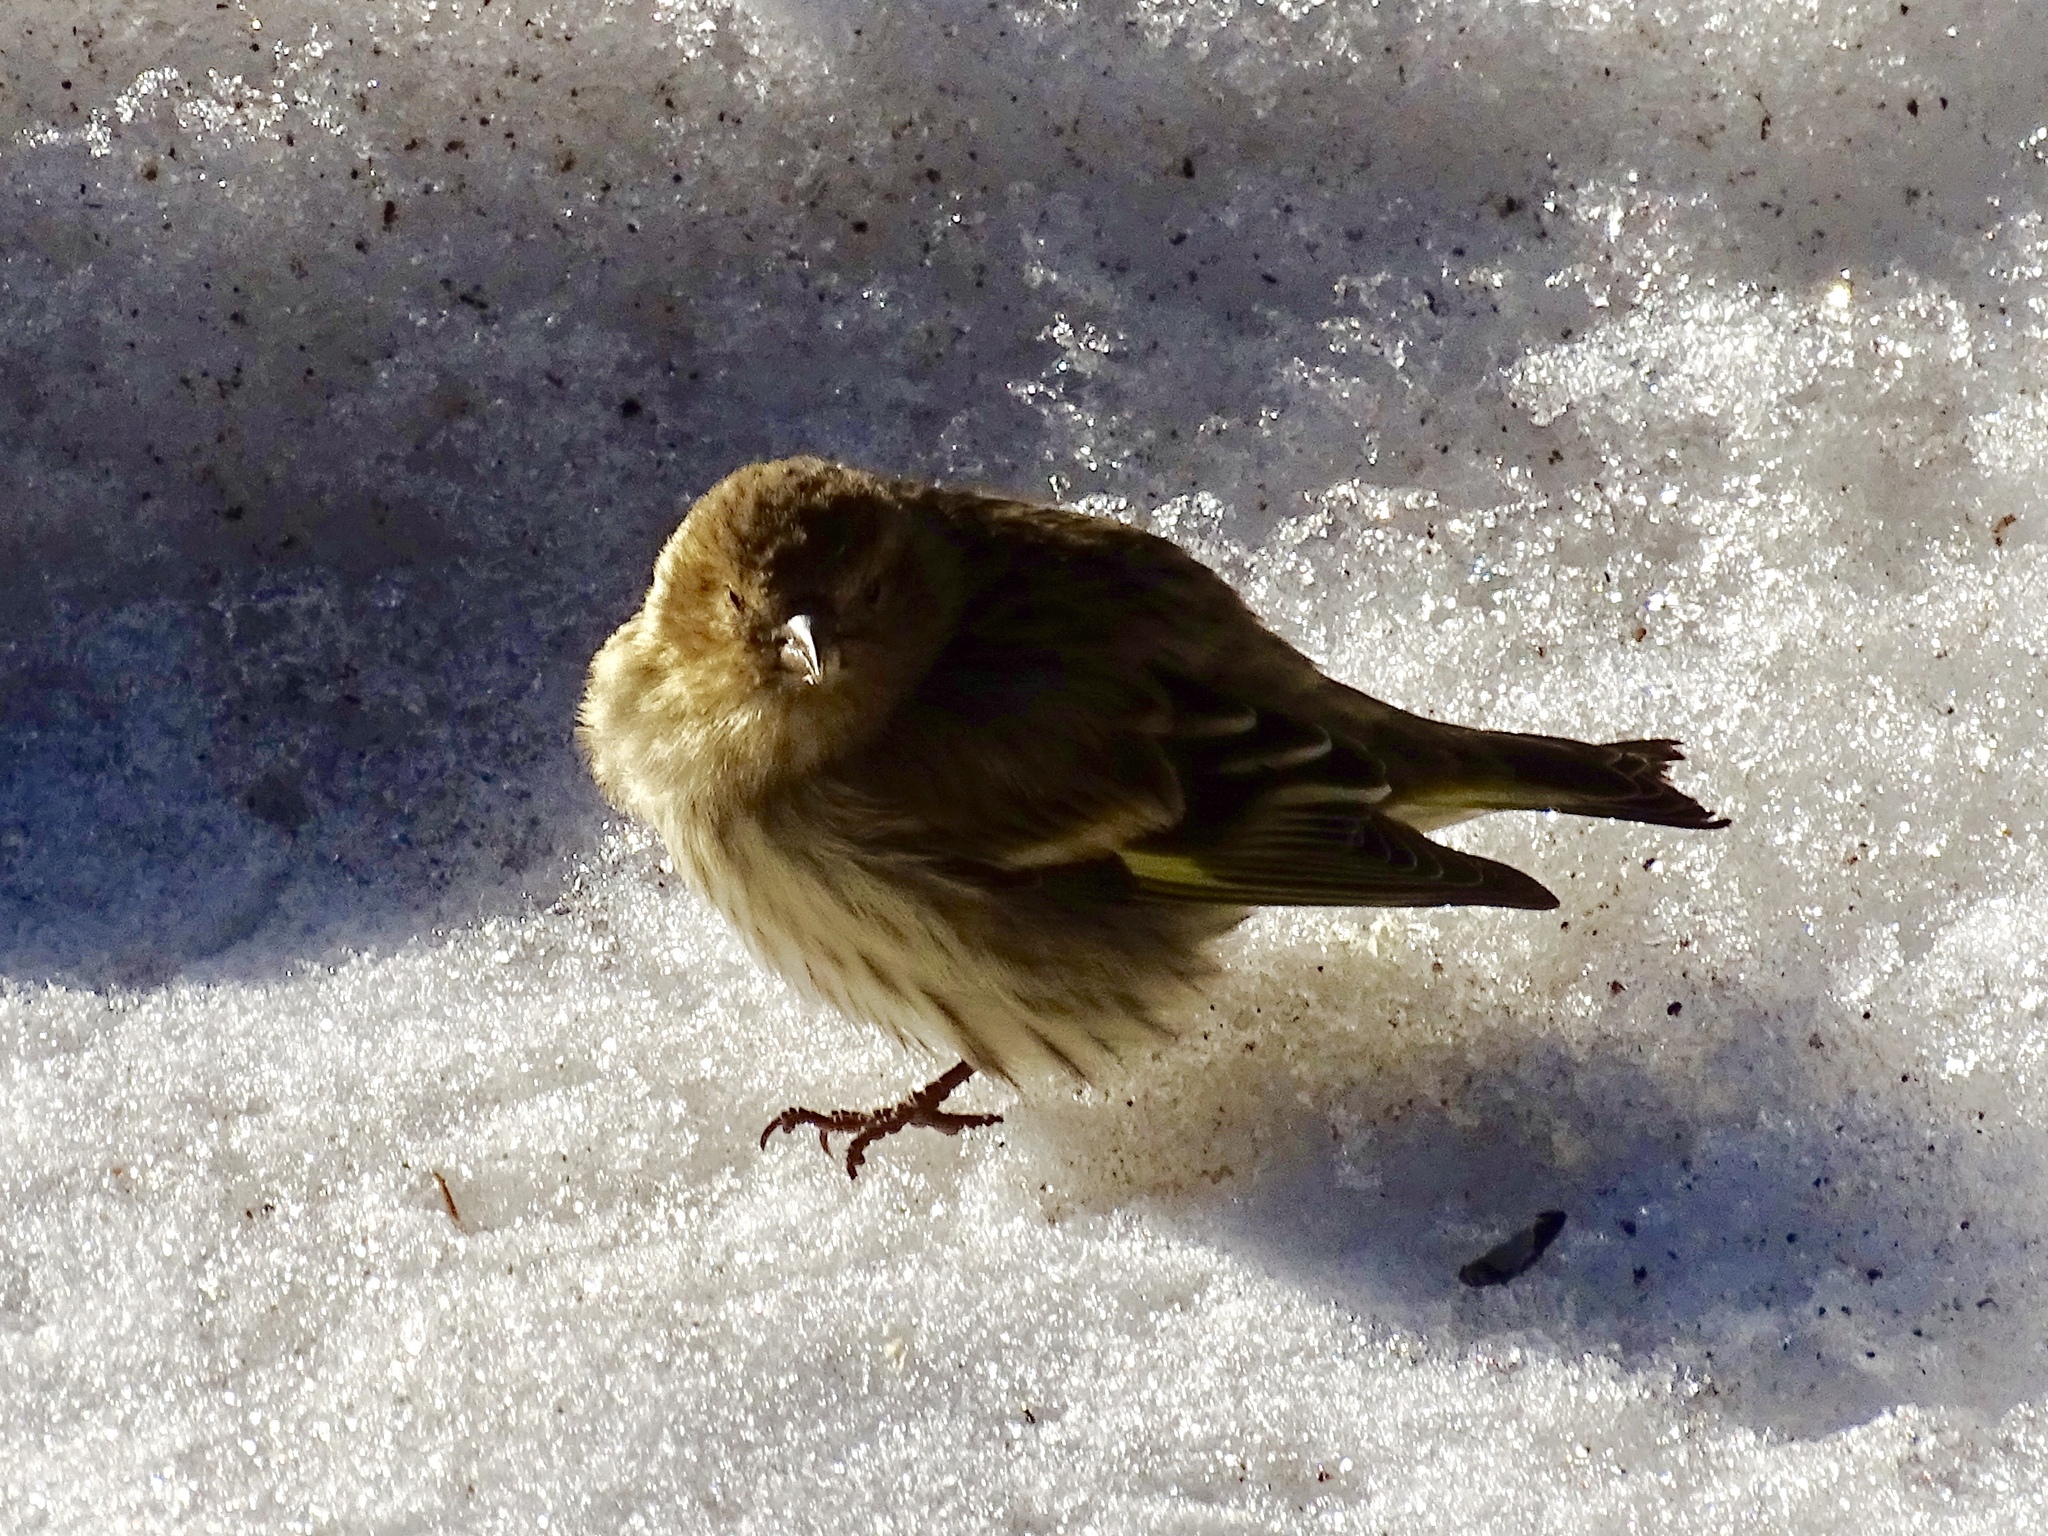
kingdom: Animalia
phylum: Chordata
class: Aves
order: Passeriformes
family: Fringillidae
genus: Spinus
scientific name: Spinus pinus
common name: Pine siskin
